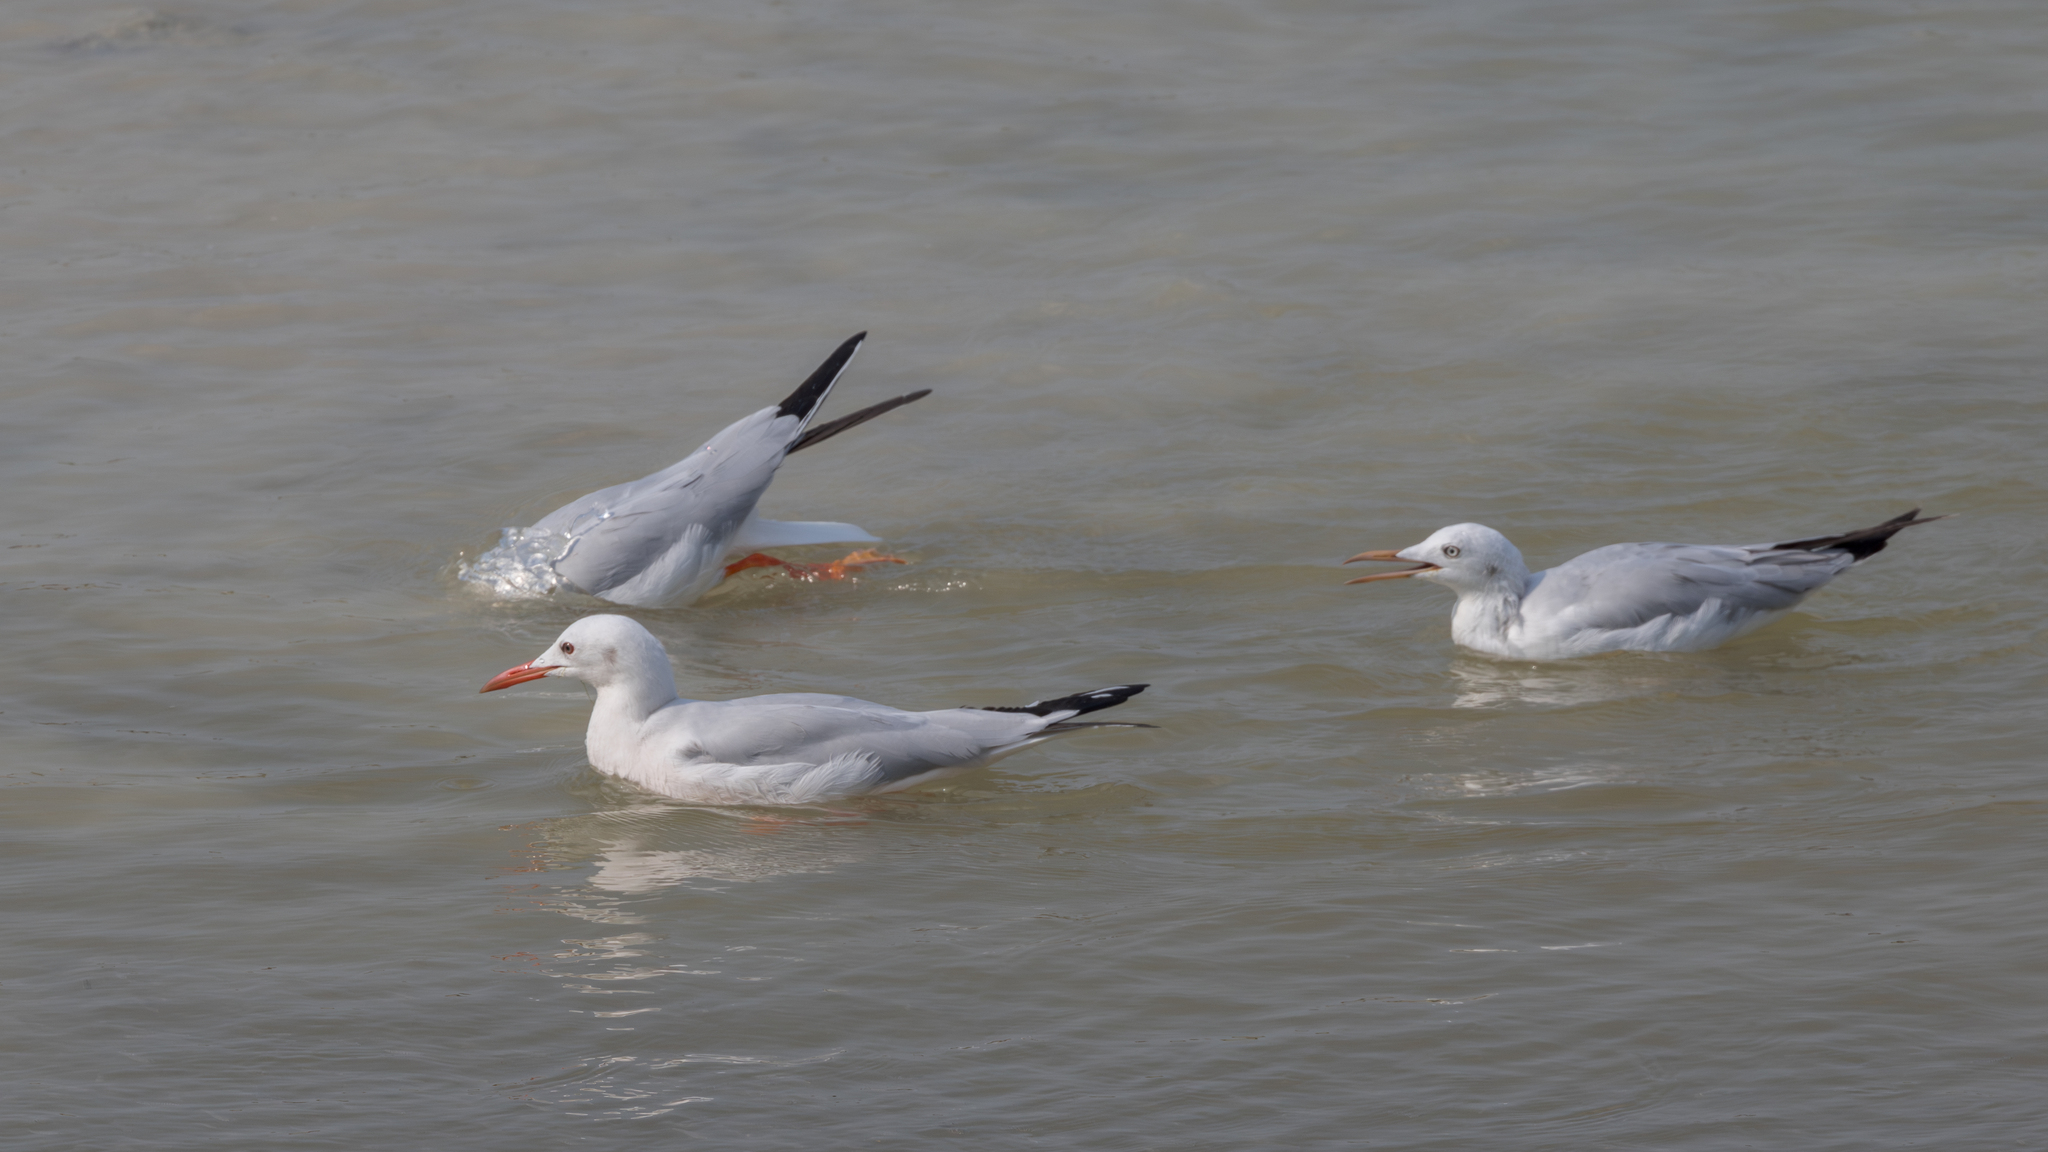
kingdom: Animalia
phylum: Chordata
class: Aves
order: Charadriiformes
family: Laridae
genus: Chroicocephalus
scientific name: Chroicocephalus genei
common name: Slender-billed gull
